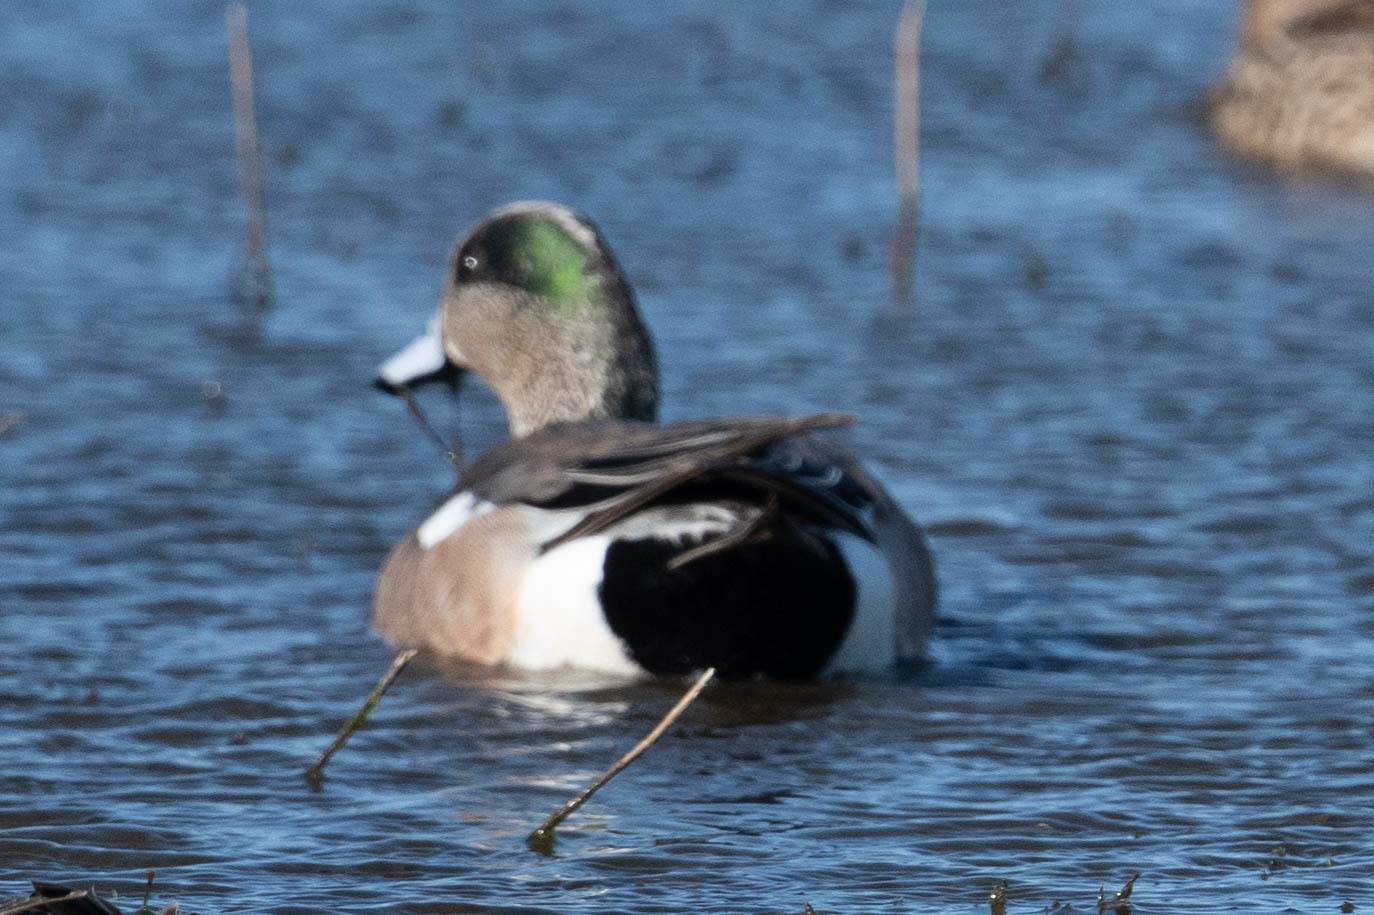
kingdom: Animalia
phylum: Chordata
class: Aves
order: Anseriformes
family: Anatidae
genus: Mareca
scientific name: Mareca americana
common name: American wigeon
